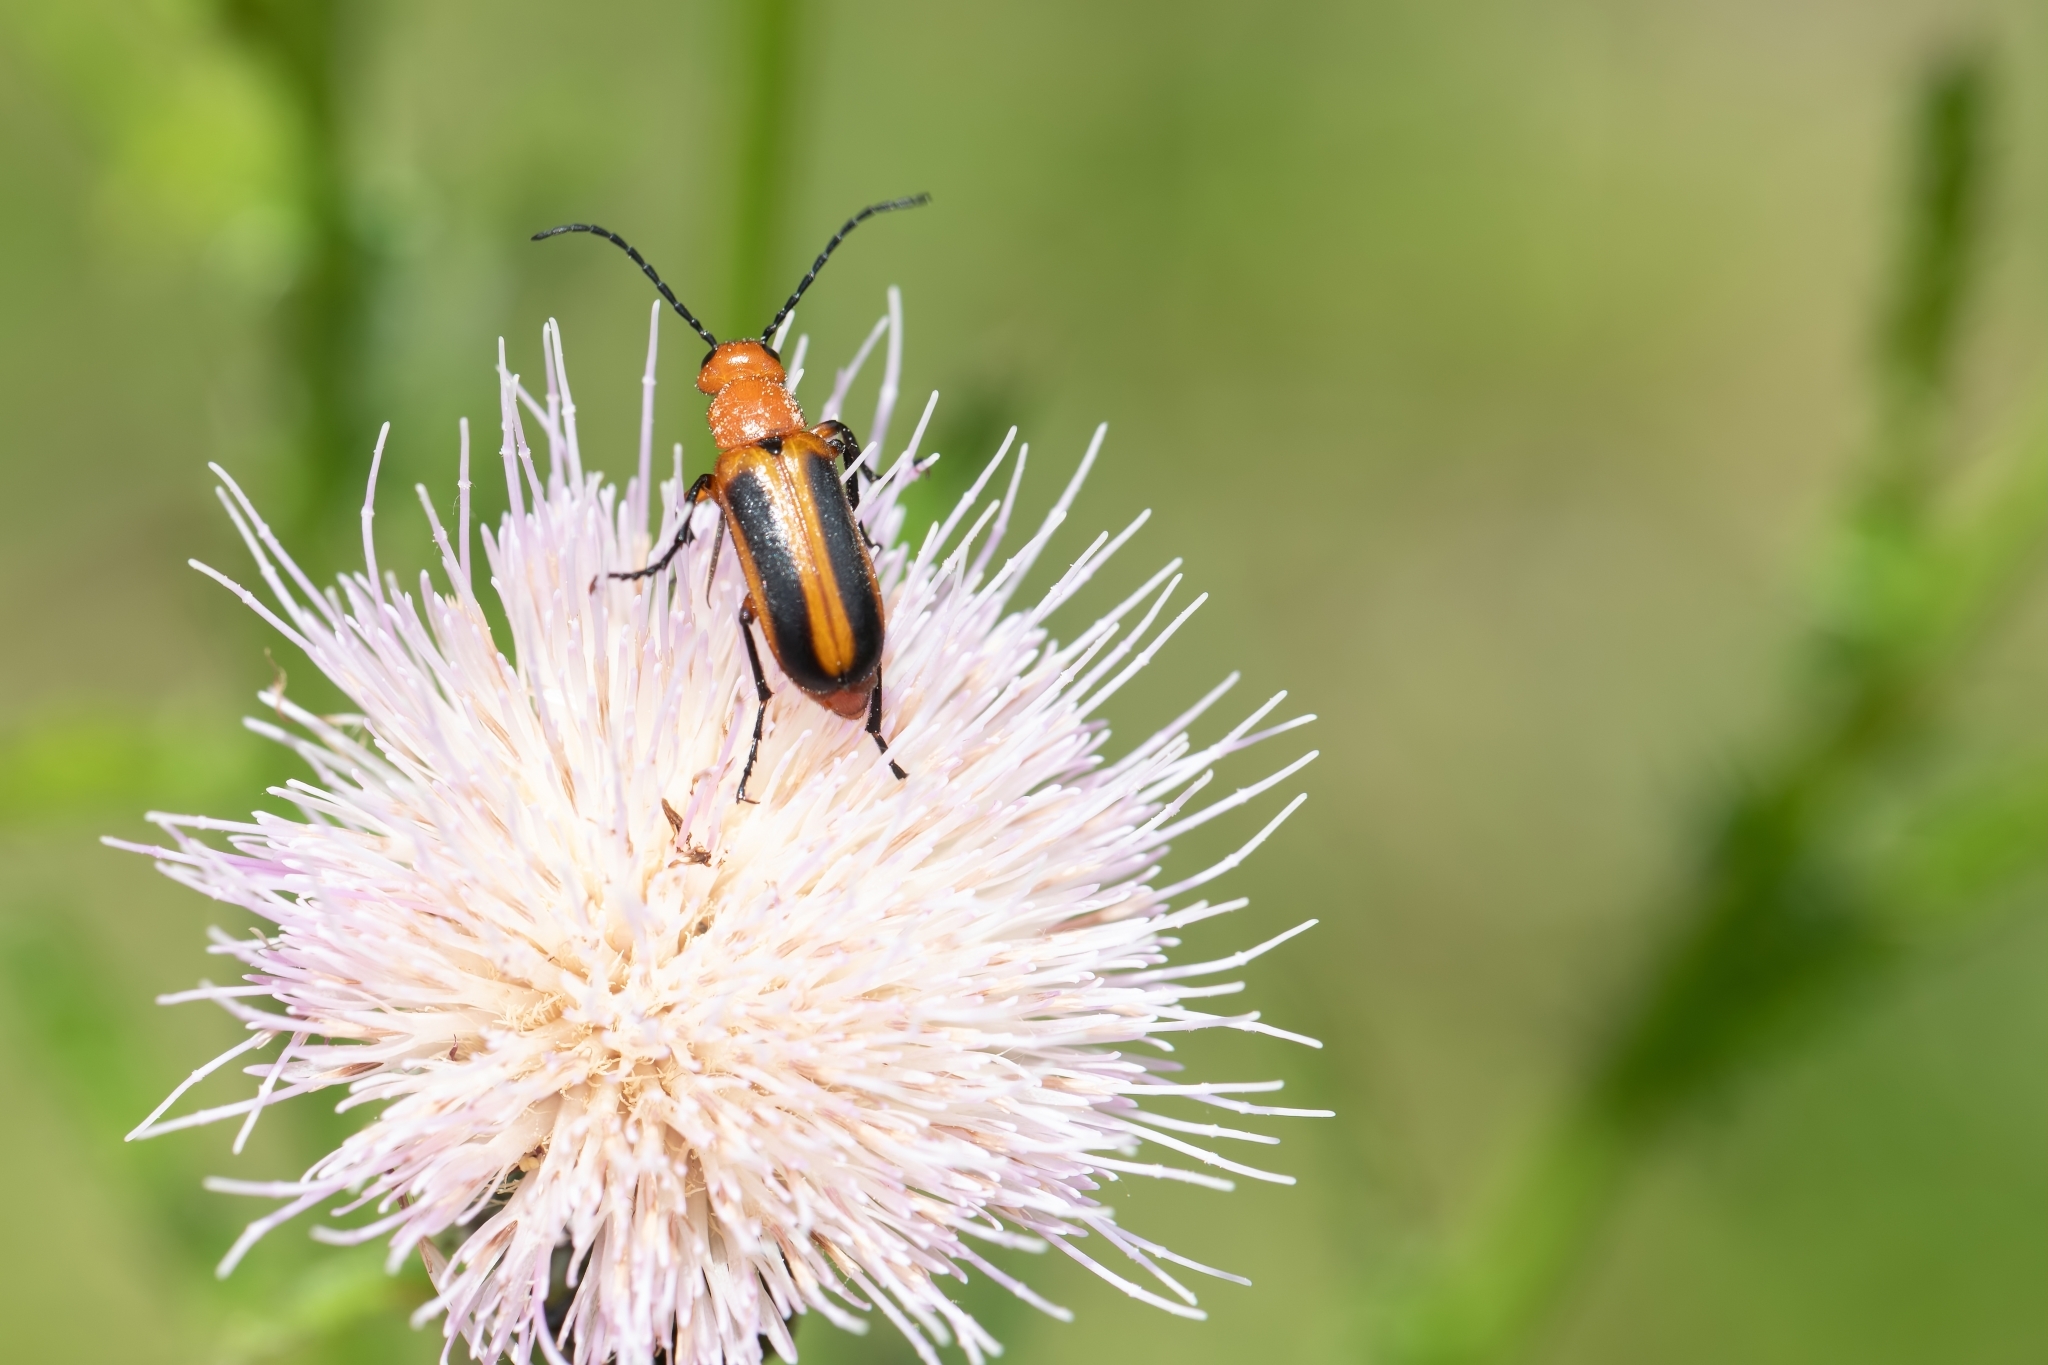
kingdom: Animalia
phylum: Arthropoda
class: Insecta
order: Coleoptera
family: Meloidae
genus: Nemognatha
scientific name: Nemognatha piazata
